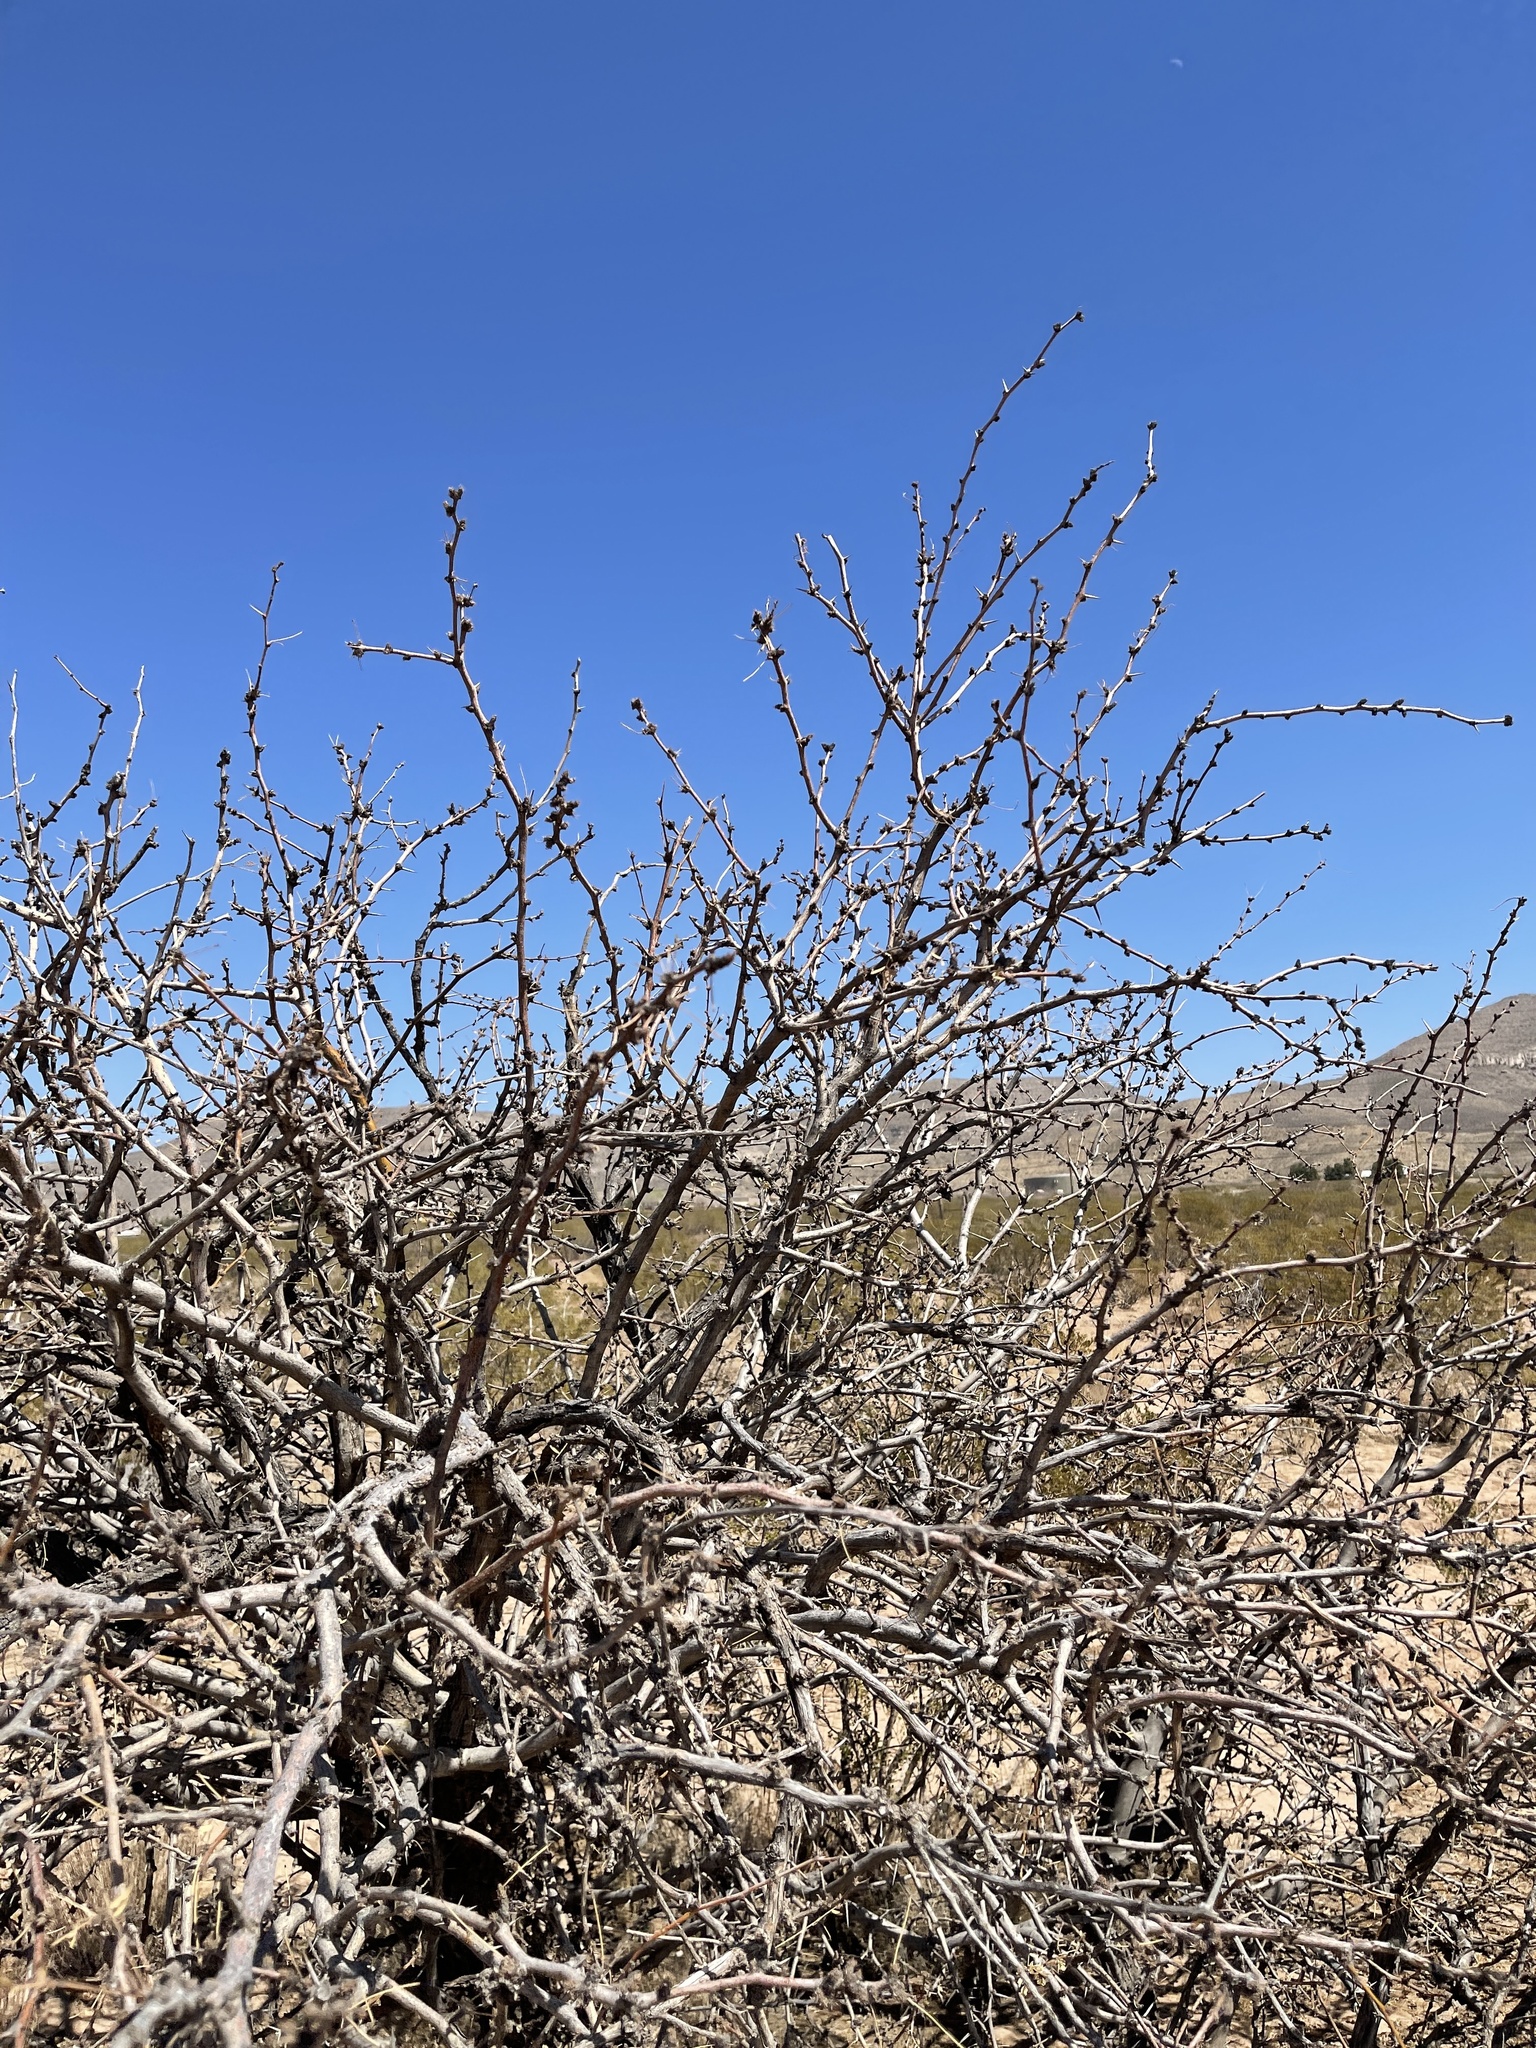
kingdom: Plantae
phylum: Tracheophyta
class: Magnoliopsida
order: Fabales
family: Fabaceae
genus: Prosopis
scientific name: Prosopis glandulosa
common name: Honey mesquite
